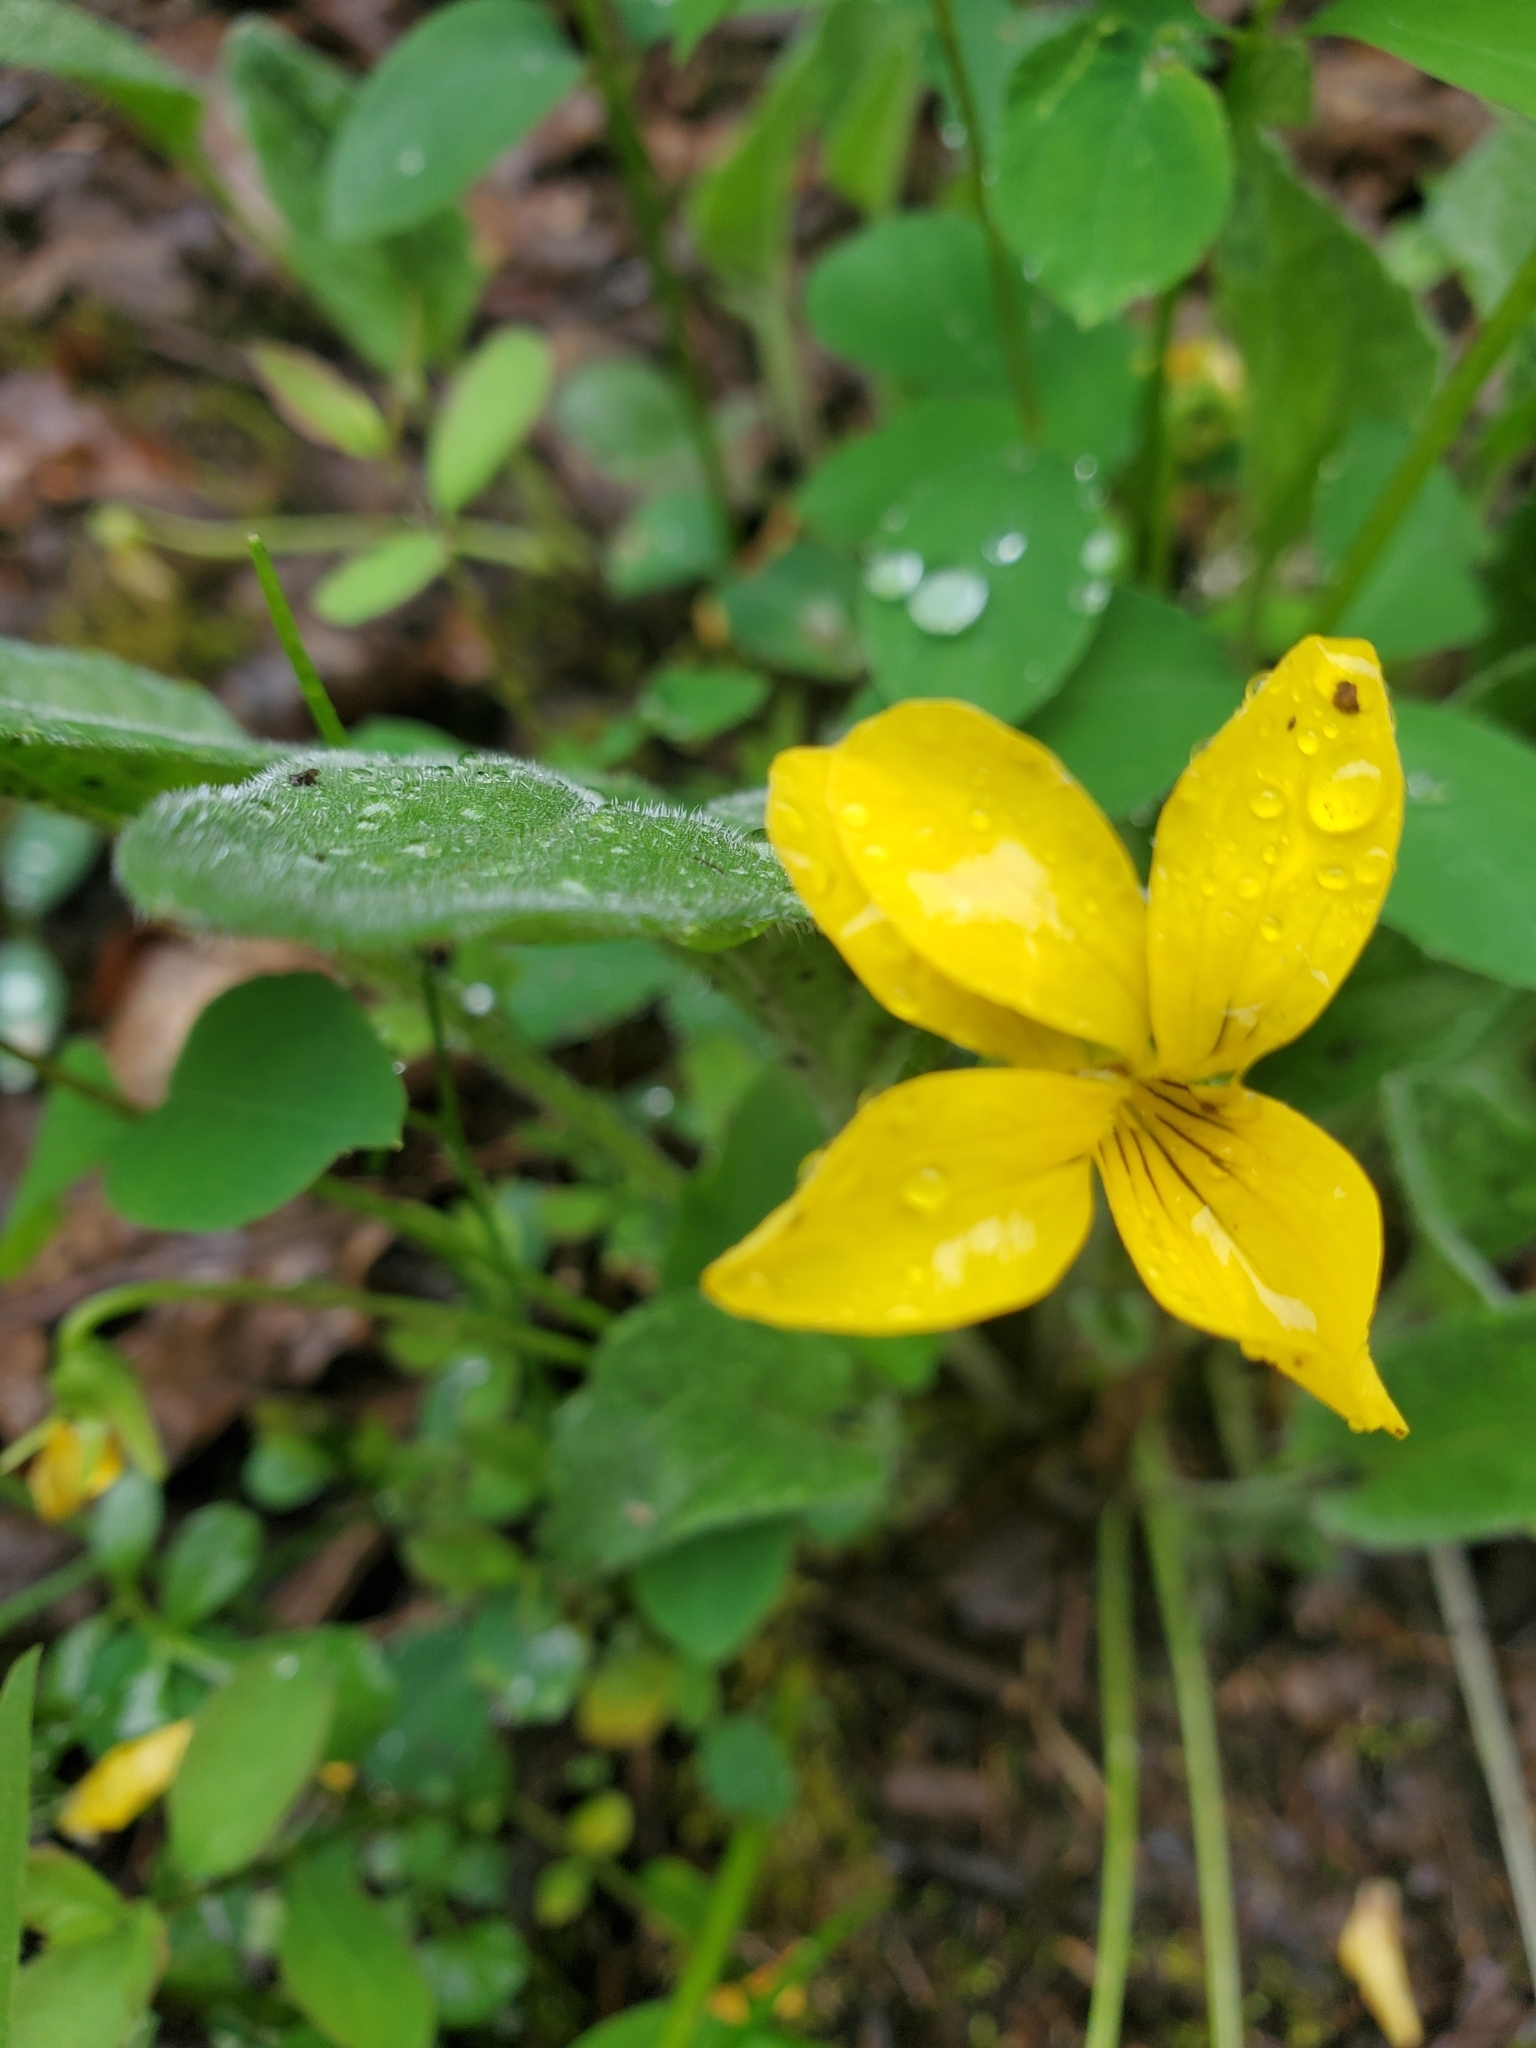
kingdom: Plantae
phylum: Tracheophyta
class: Magnoliopsida
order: Malpighiales
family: Violaceae
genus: Viola
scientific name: Viola praemorsa
